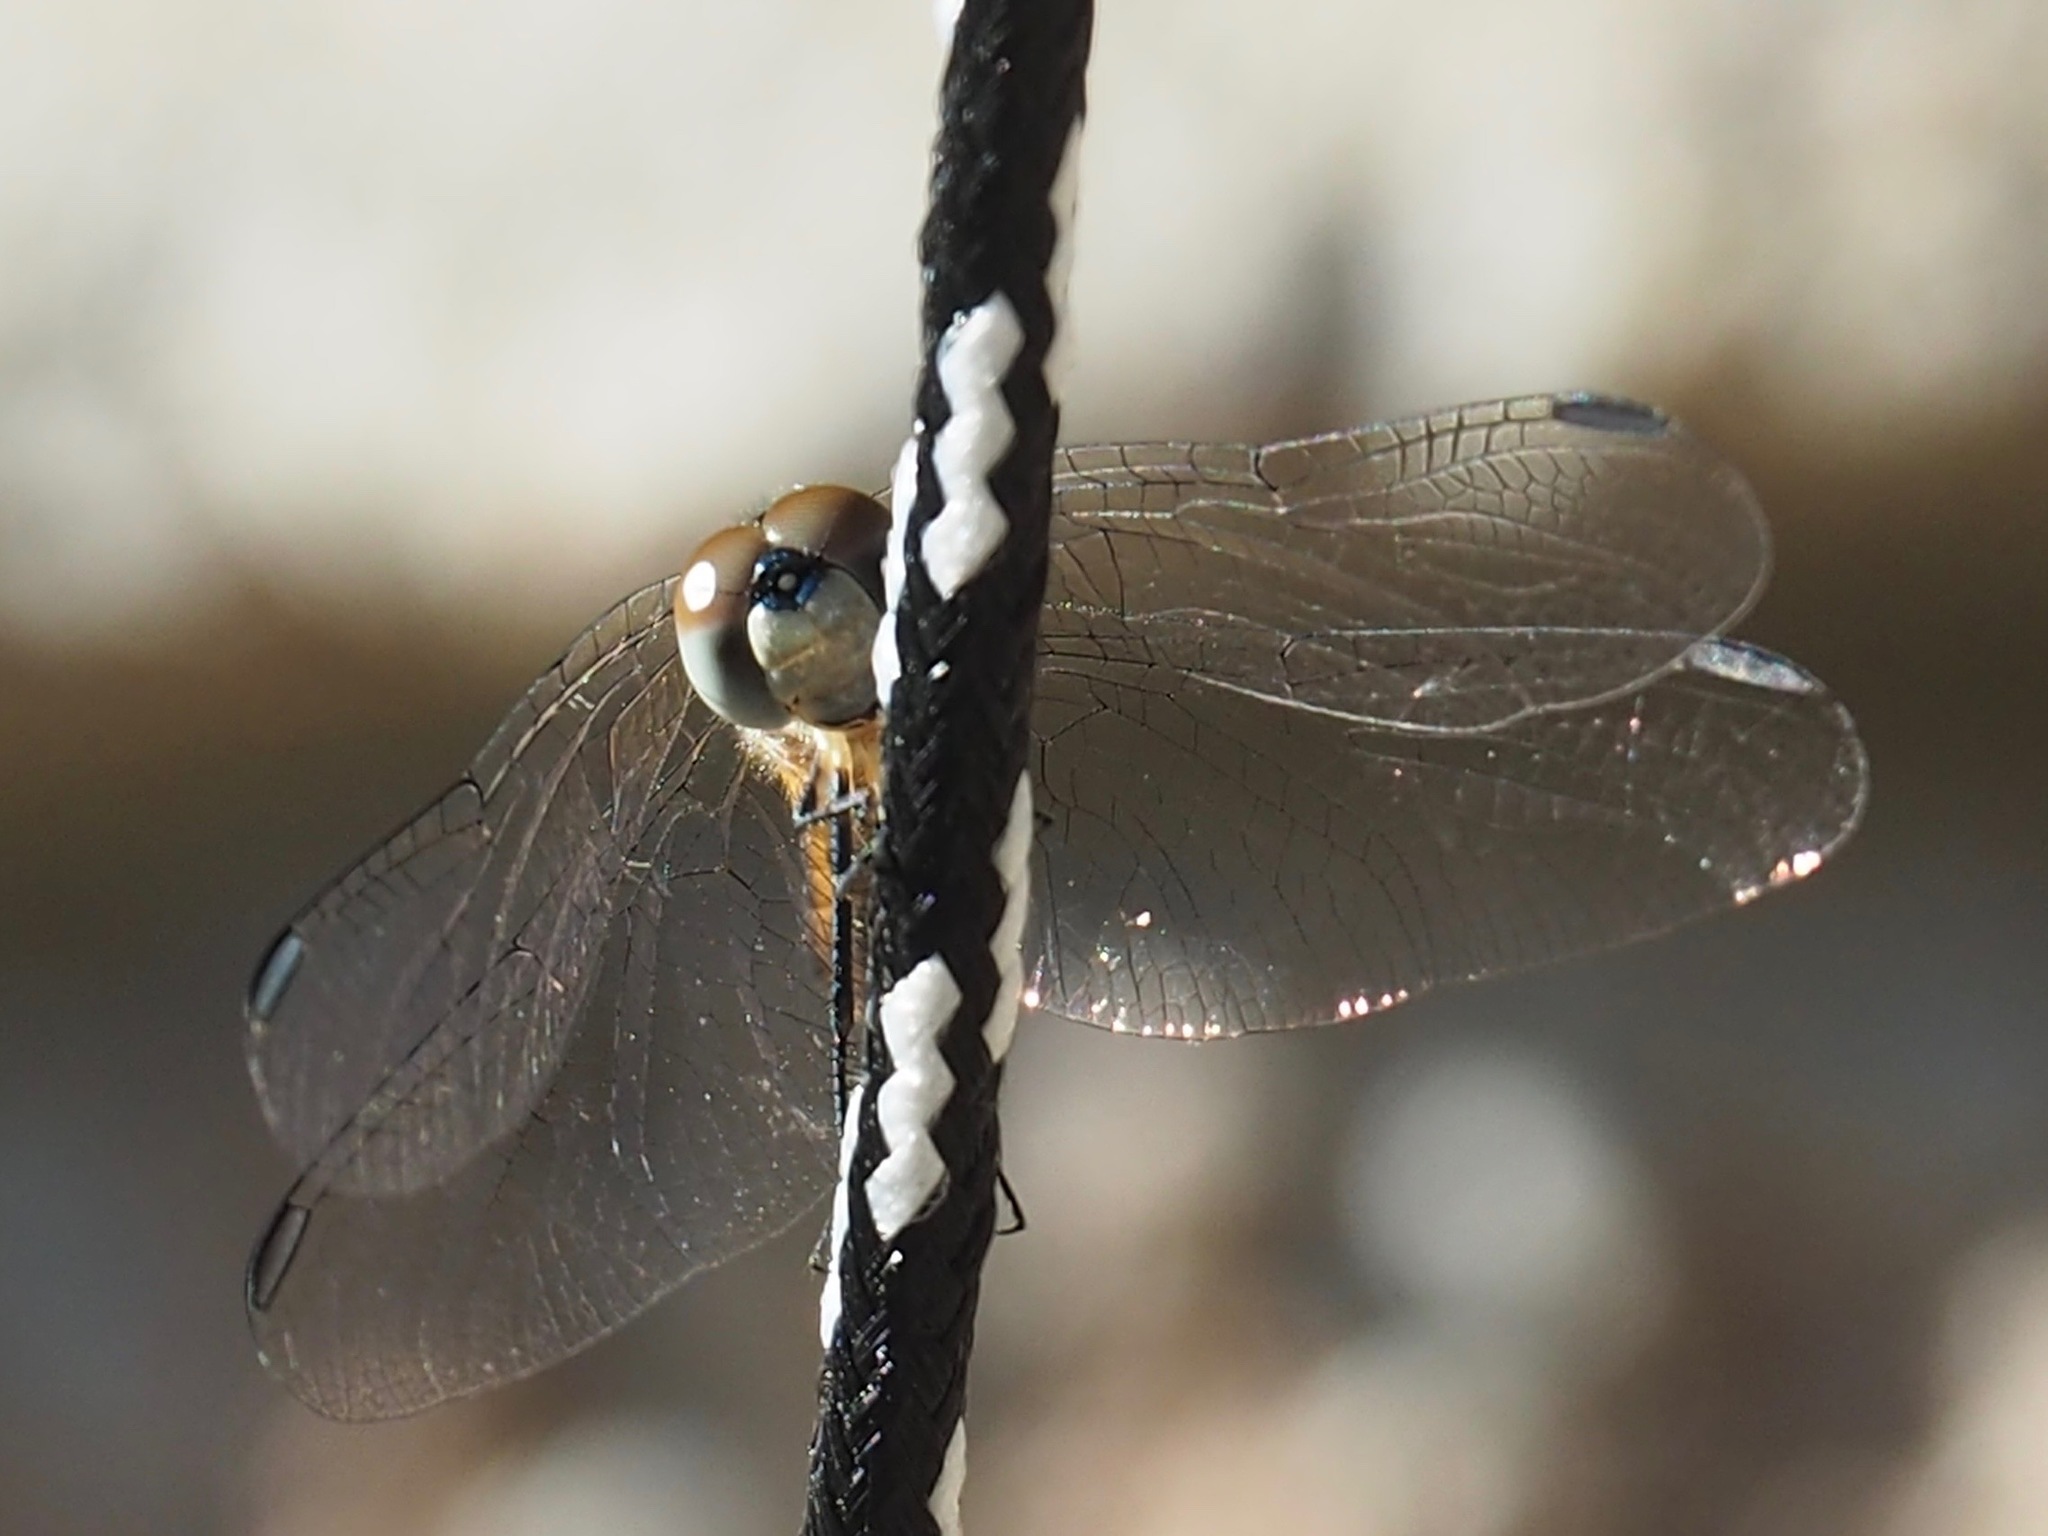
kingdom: Animalia
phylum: Arthropoda
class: Insecta
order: Odonata
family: Libellulidae
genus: Pachydiplax
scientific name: Pachydiplax longipennis
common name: Blue dasher
